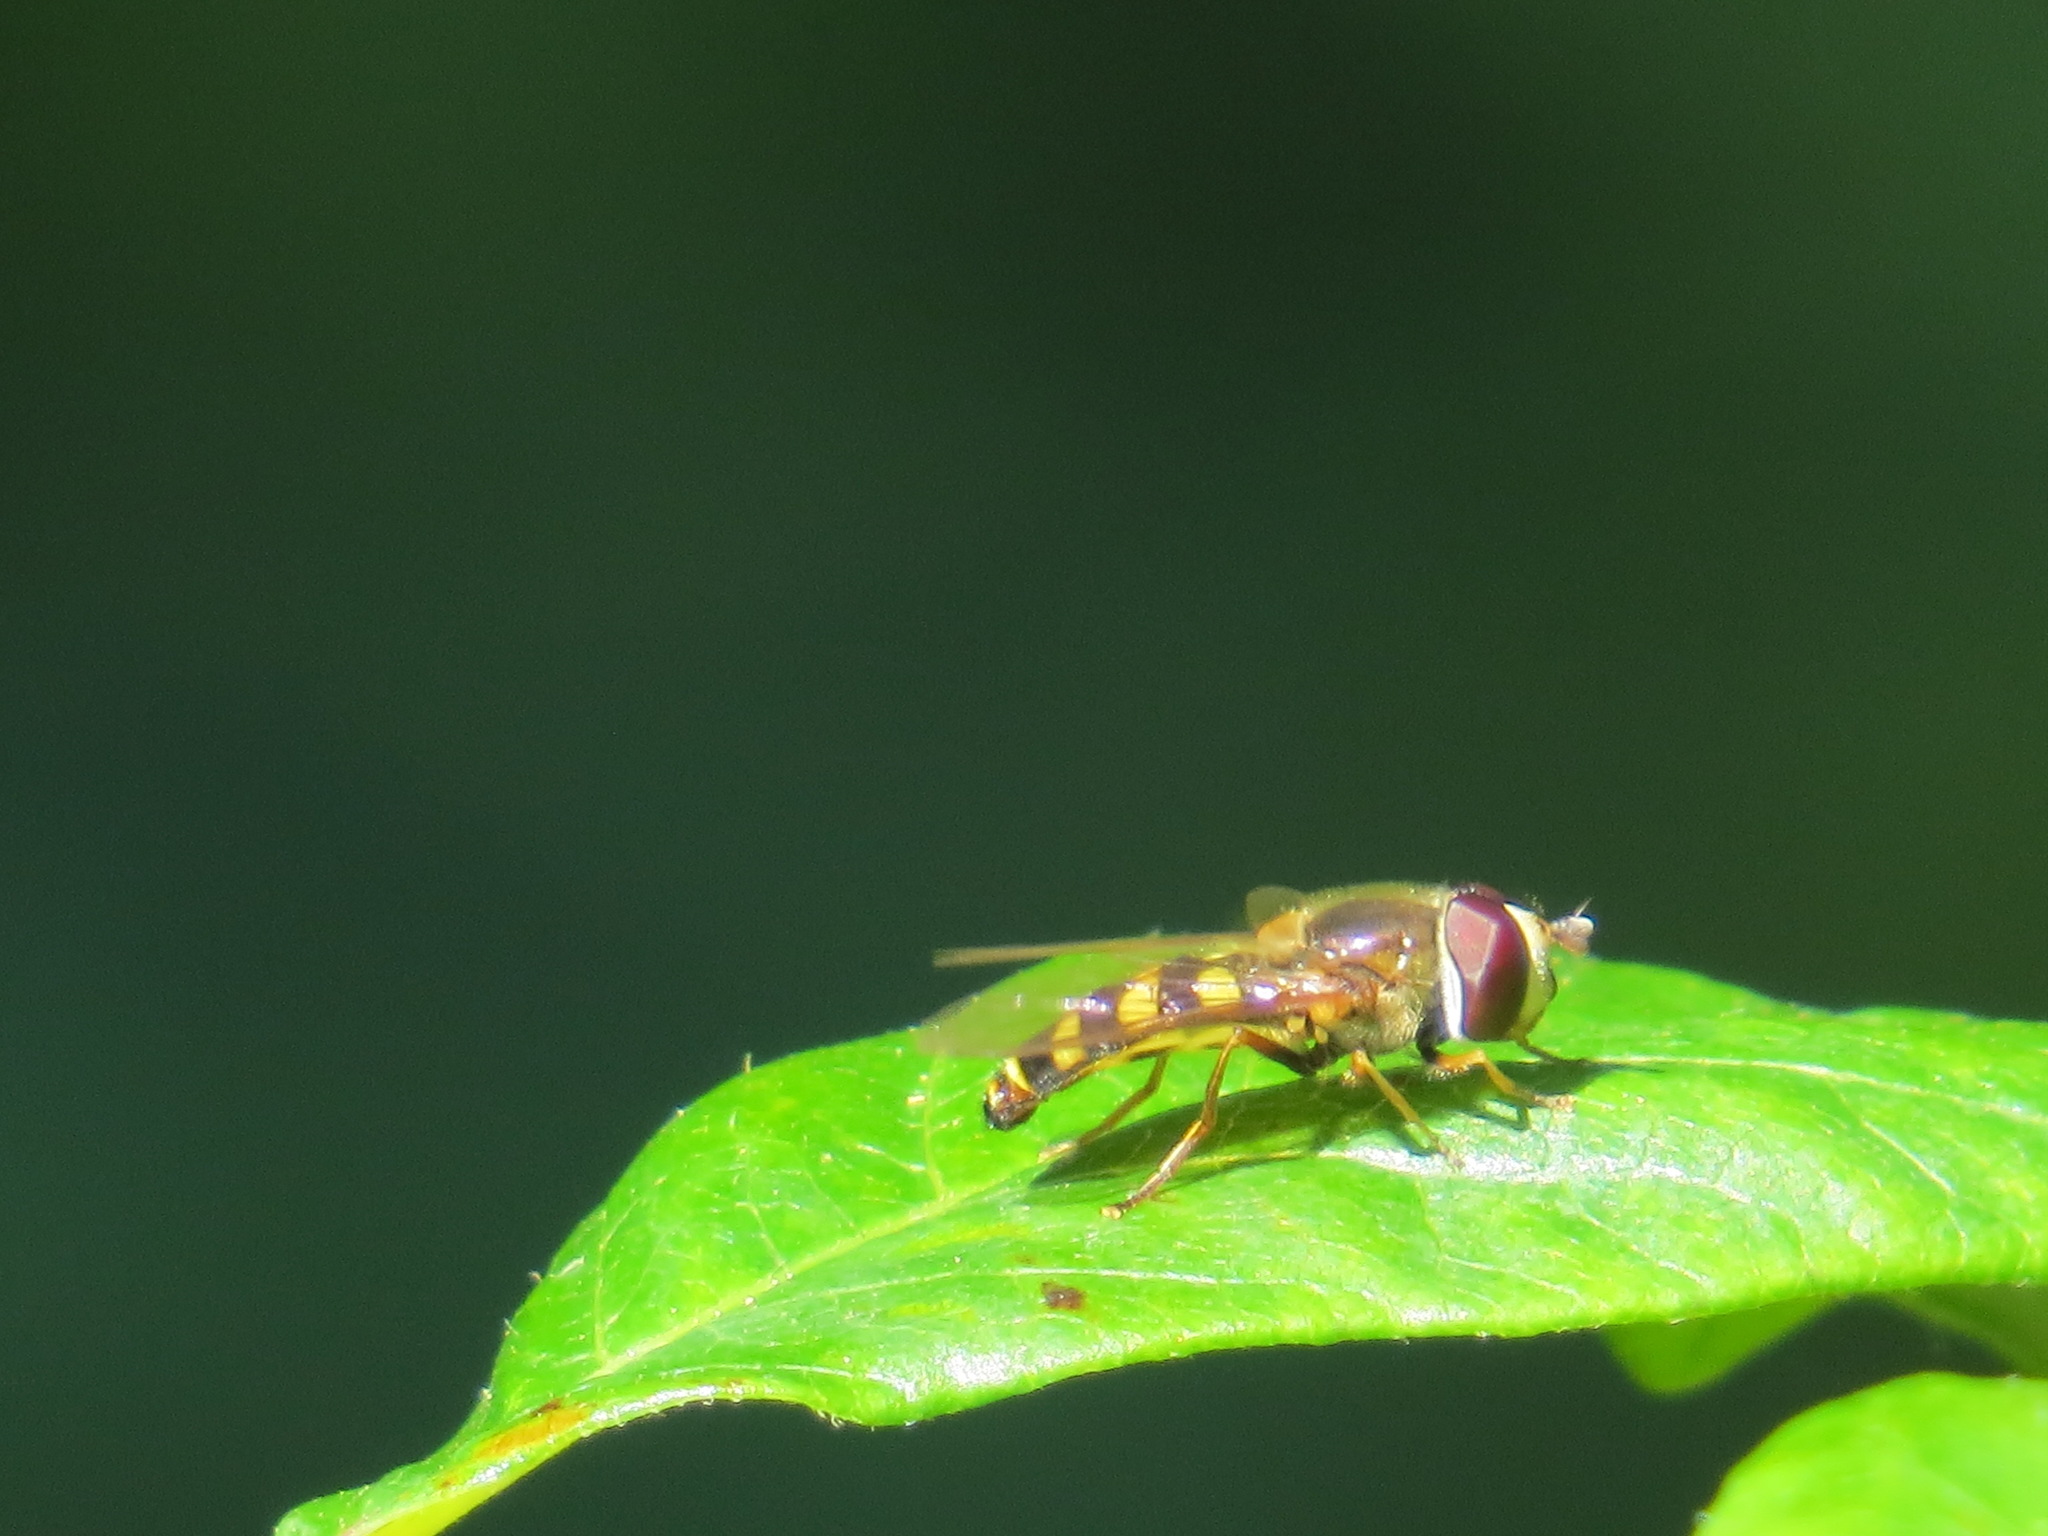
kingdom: Animalia
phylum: Arthropoda
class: Insecta
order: Diptera
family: Syrphidae
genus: Eupeodes
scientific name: Eupeodes fumipennis
